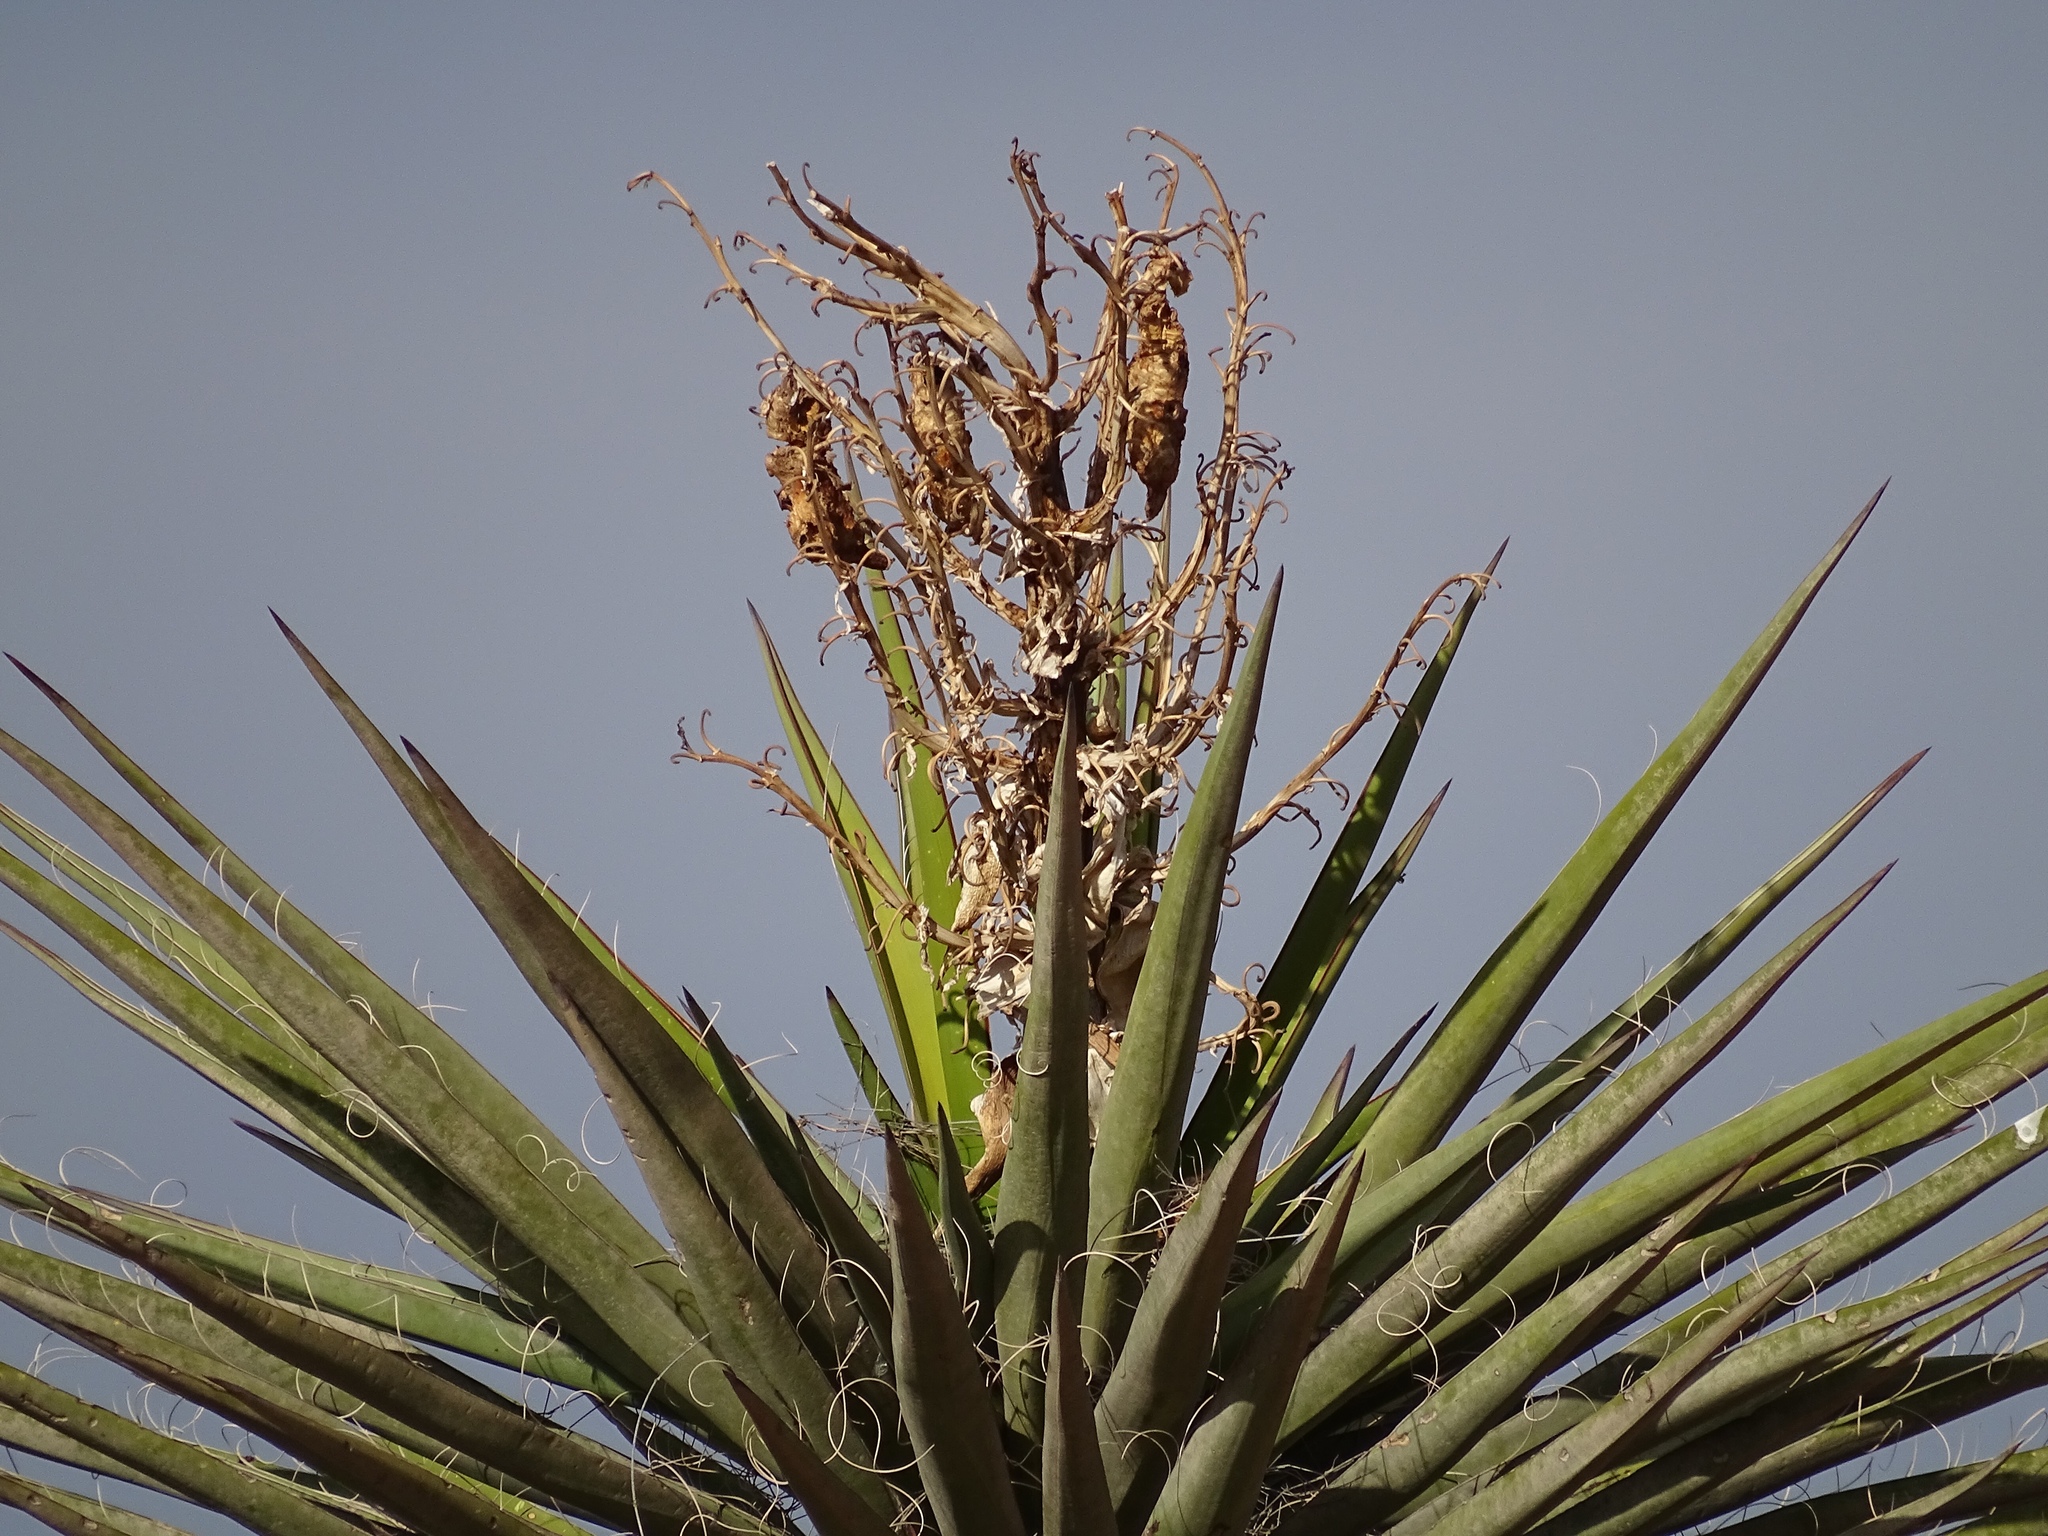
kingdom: Plantae
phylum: Tracheophyta
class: Liliopsida
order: Asparagales
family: Asparagaceae
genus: Yucca
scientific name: Yucca treculiana
